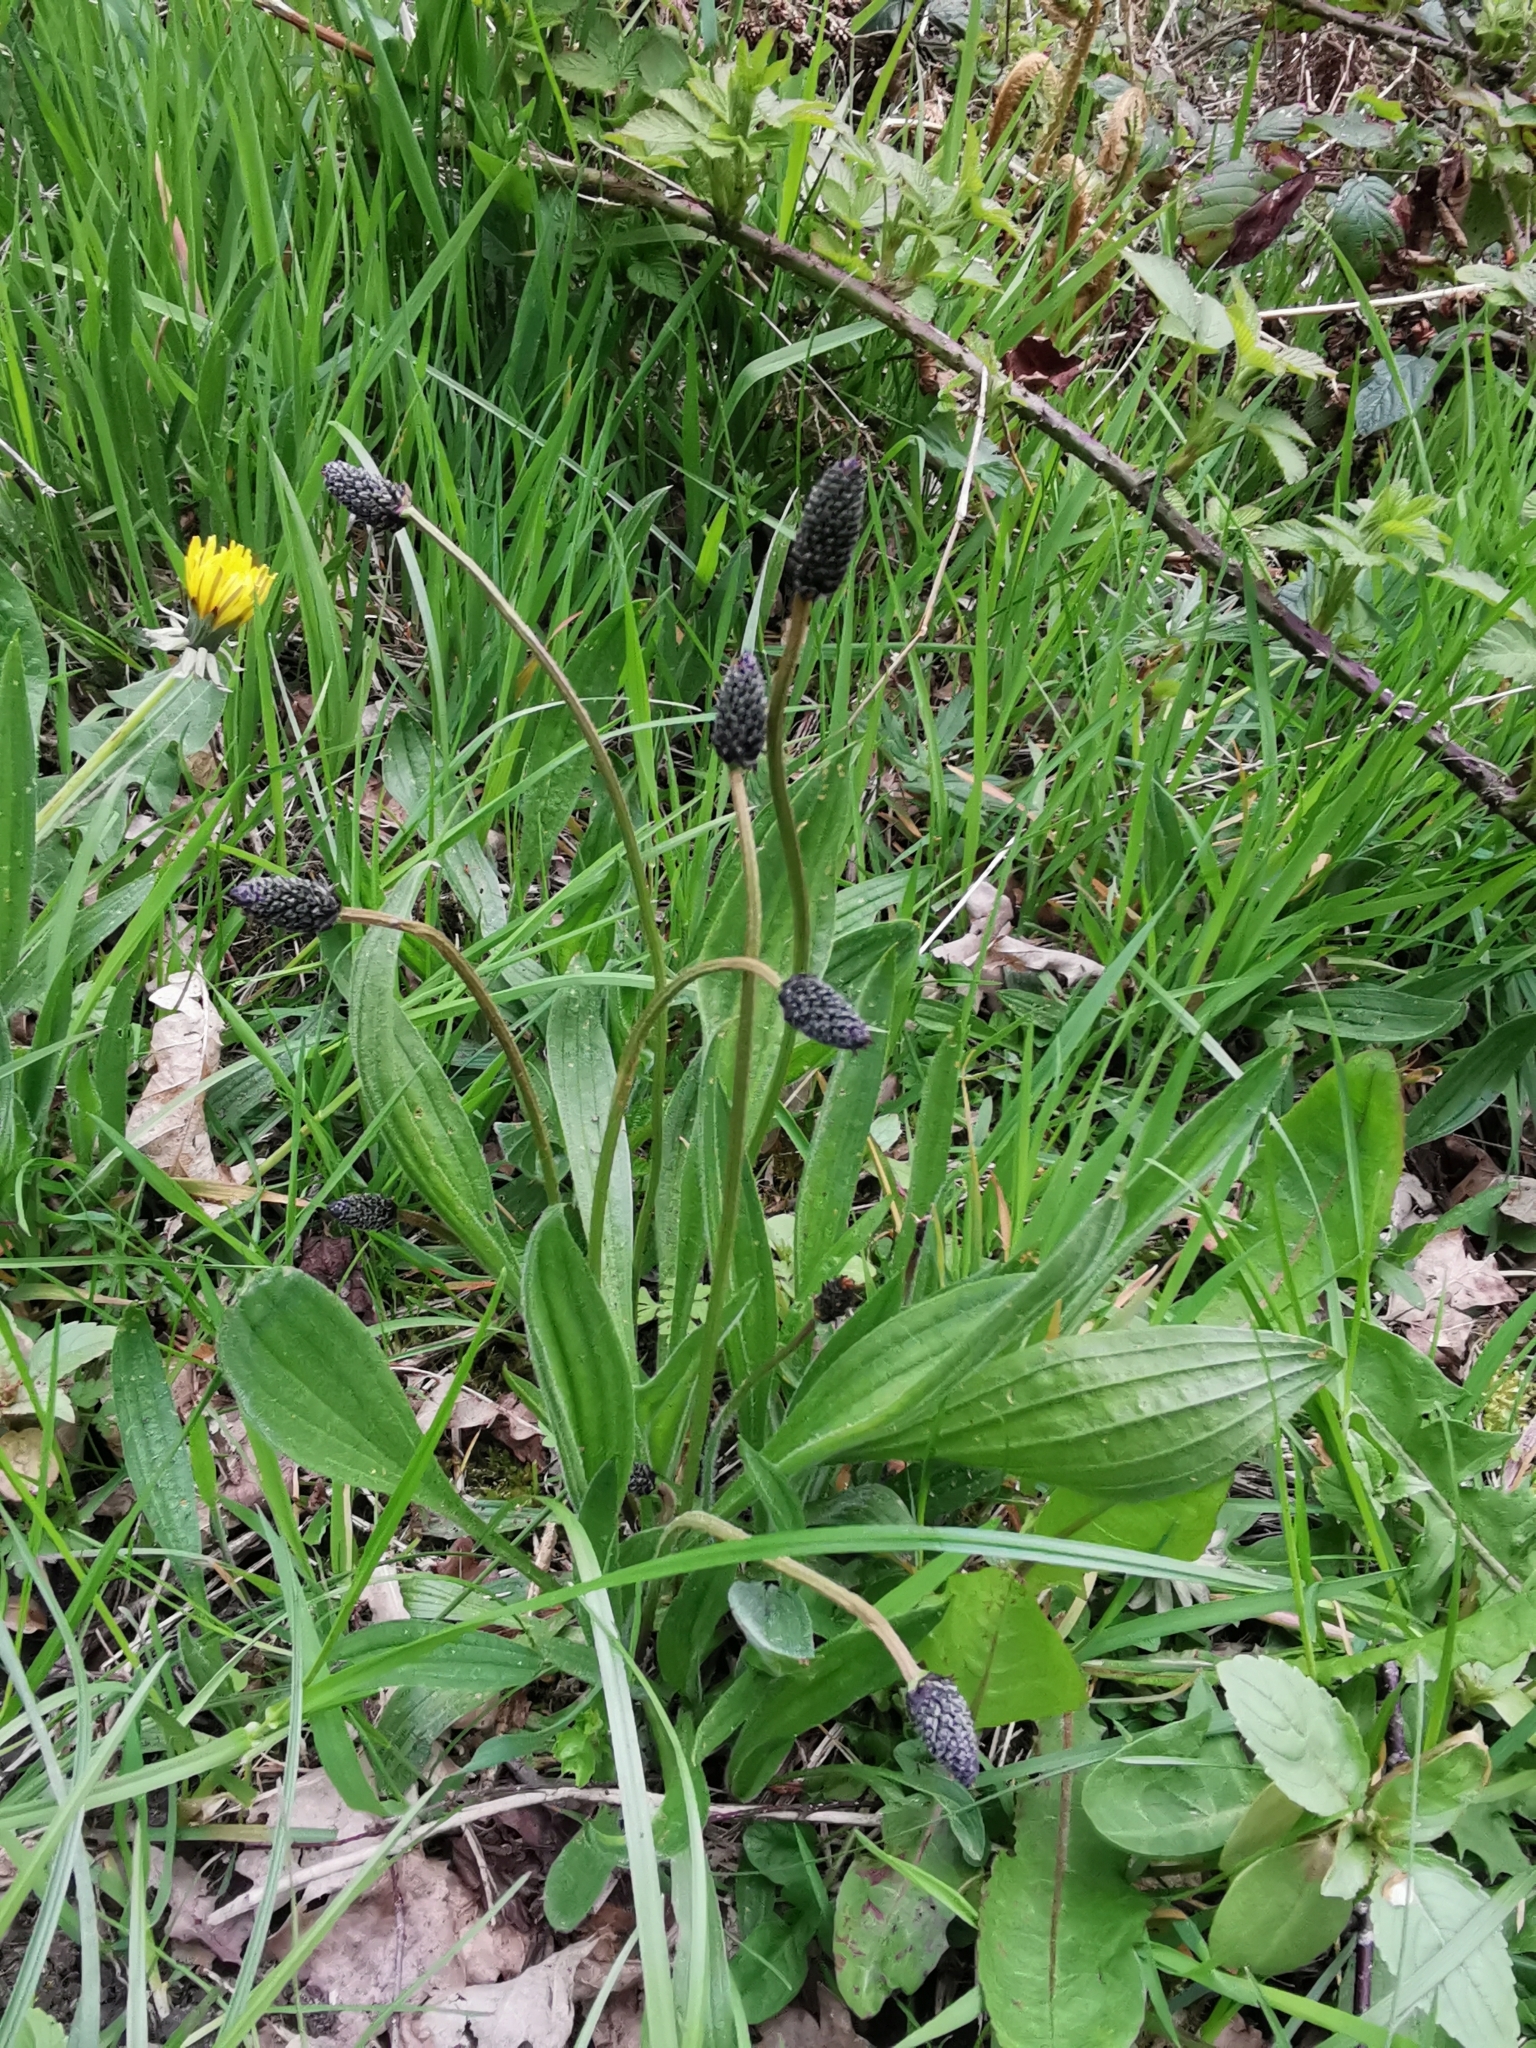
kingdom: Plantae
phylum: Tracheophyta
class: Magnoliopsida
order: Lamiales
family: Plantaginaceae
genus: Plantago
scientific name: Plantago lanceolata
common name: Ribwort plantain
